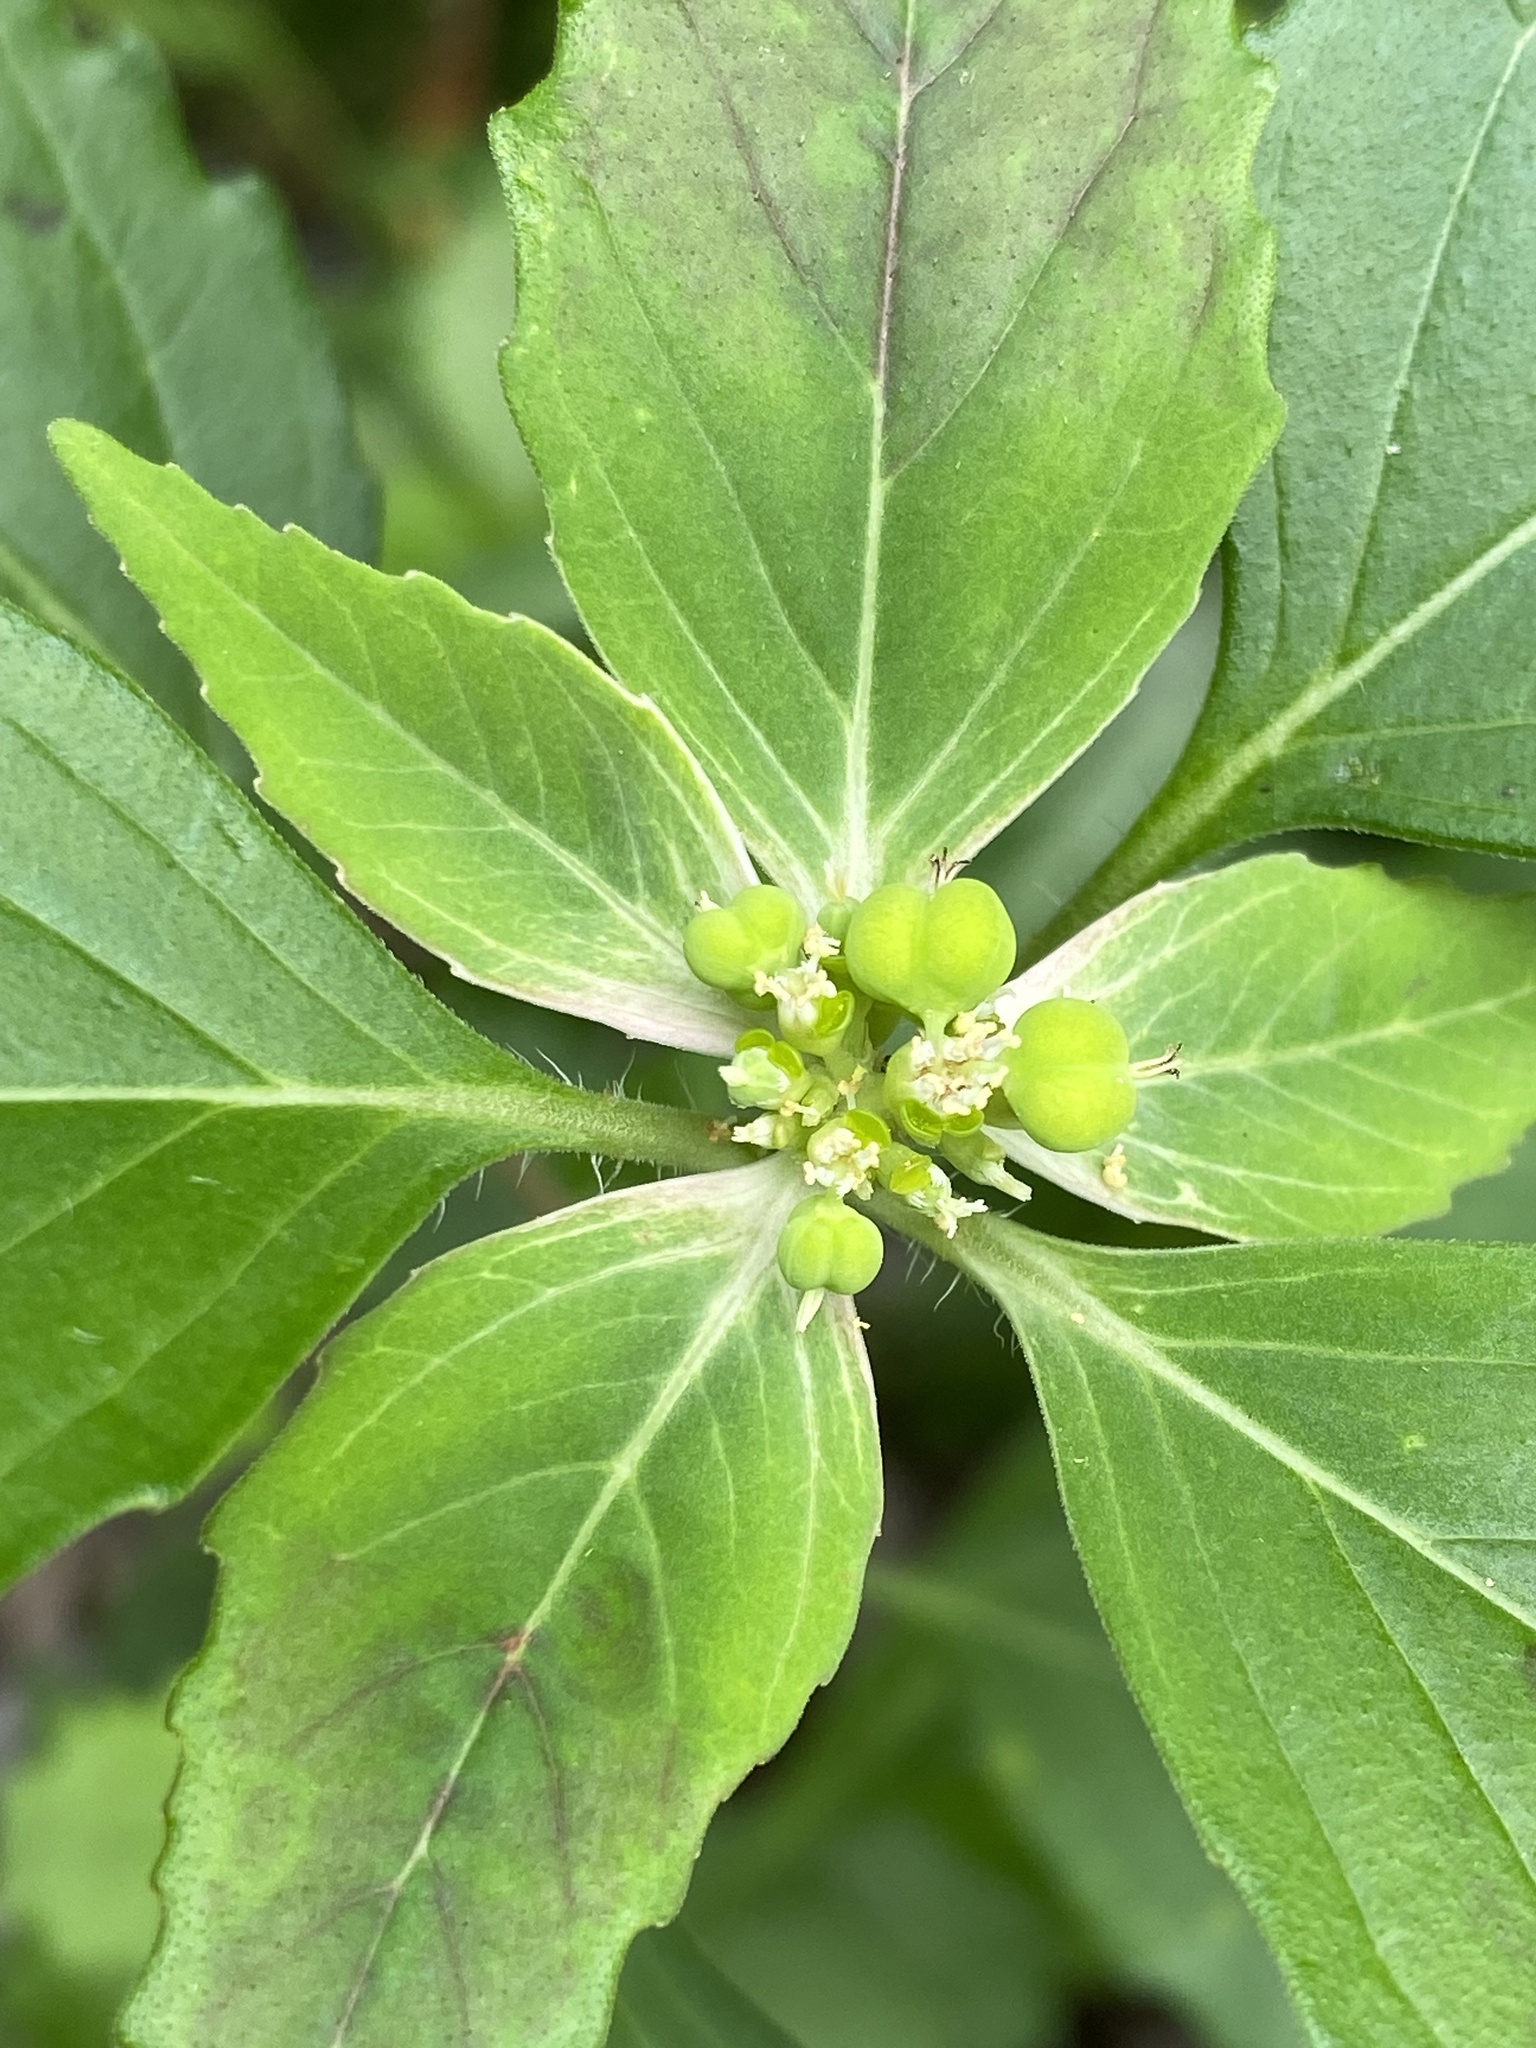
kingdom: Plantae
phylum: Tracheophyta
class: Magnoliopsida
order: Malpighiales
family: Euphorbiaceae
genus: Euphorbia
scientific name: Euphorbia dentata
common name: Dentate spurge
